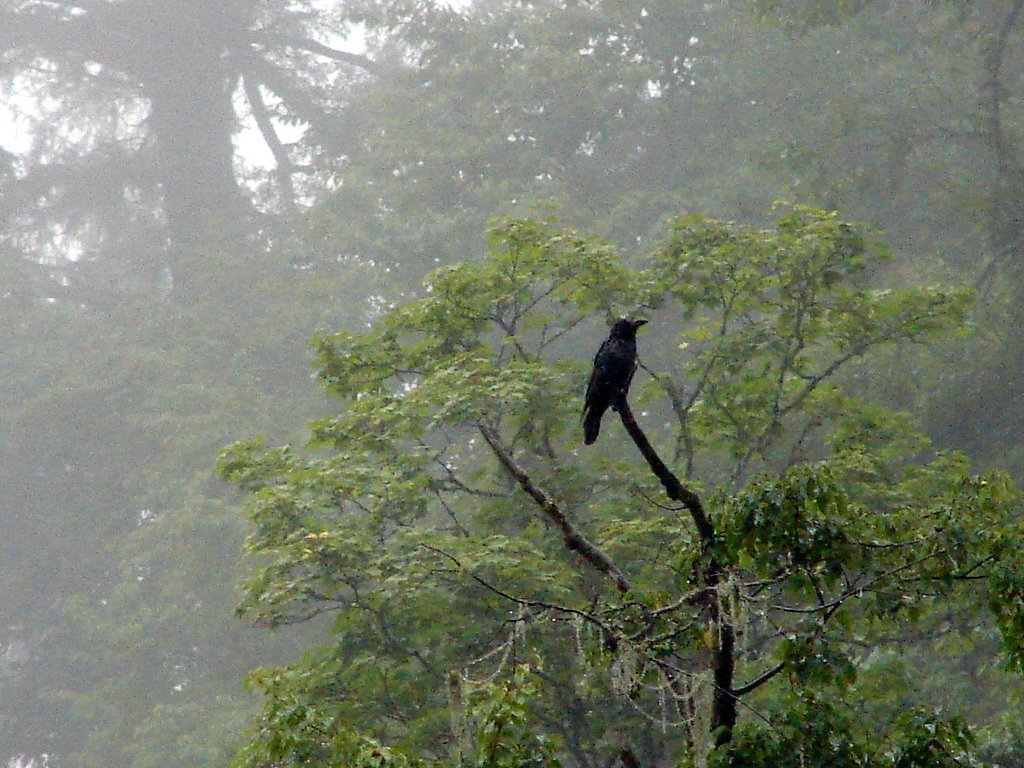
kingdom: Animalia
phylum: Chordata
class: Aves
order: Passeriformes
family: Corvidae
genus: Corvus
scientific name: Corvus macrorhynchos
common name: Large-billed crow
